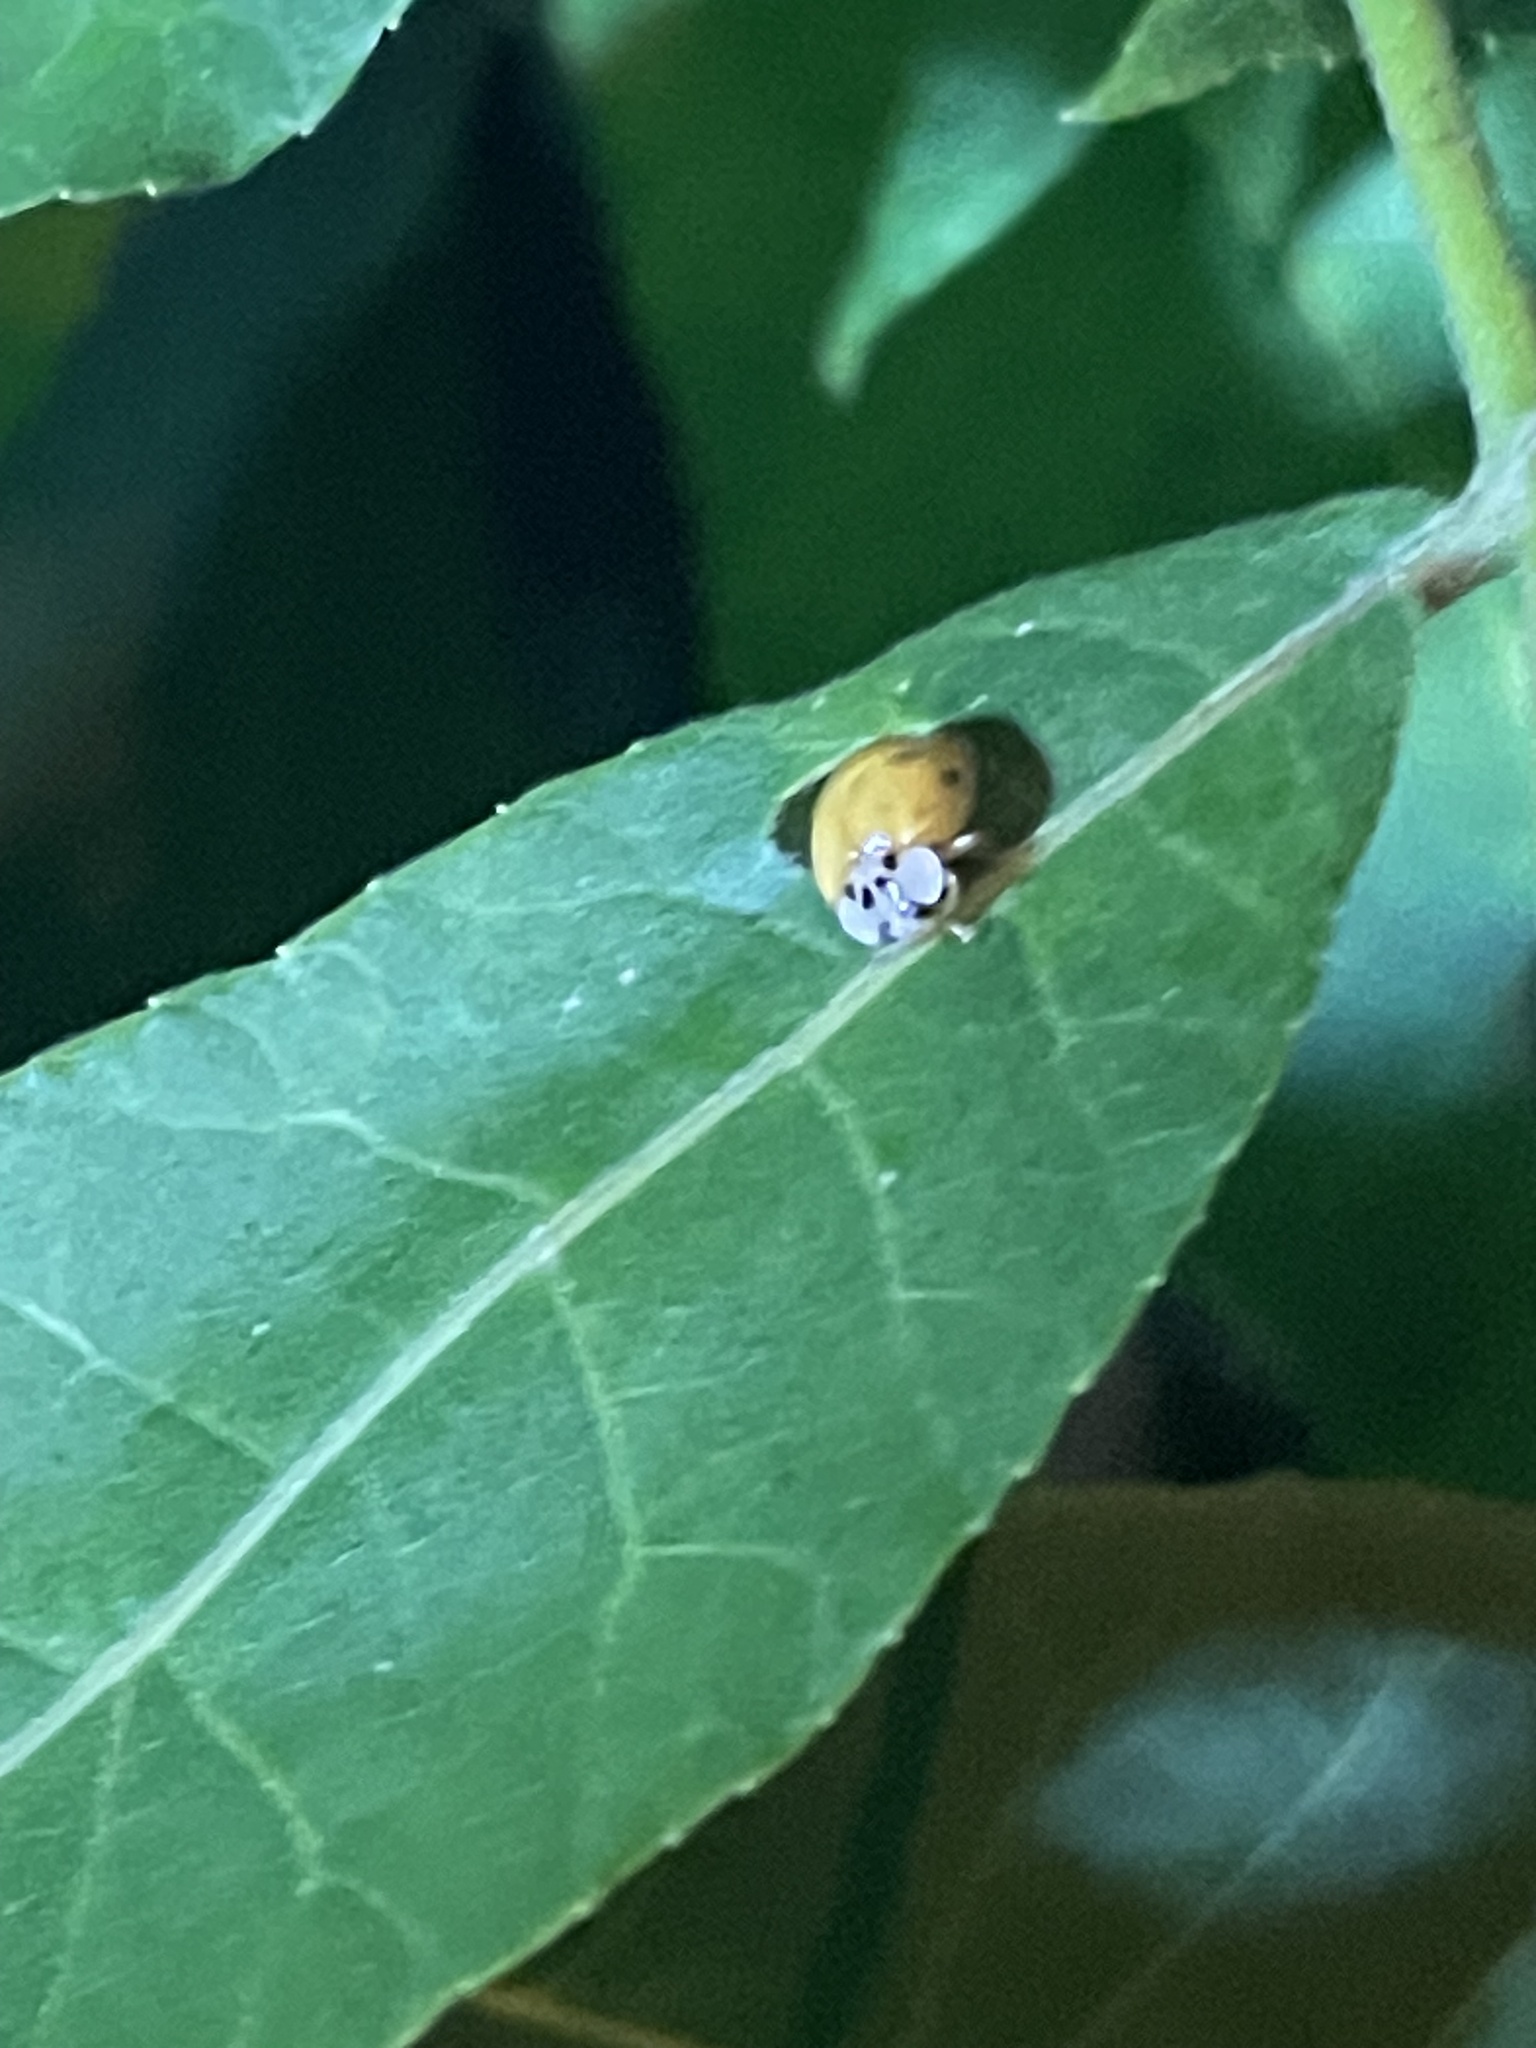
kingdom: Animalia
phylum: Arthropoda
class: Insecta
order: Coleoptera
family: Coccinellidae
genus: Harmonia
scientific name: Harmonia axyridis
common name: Harlequin ladybird
